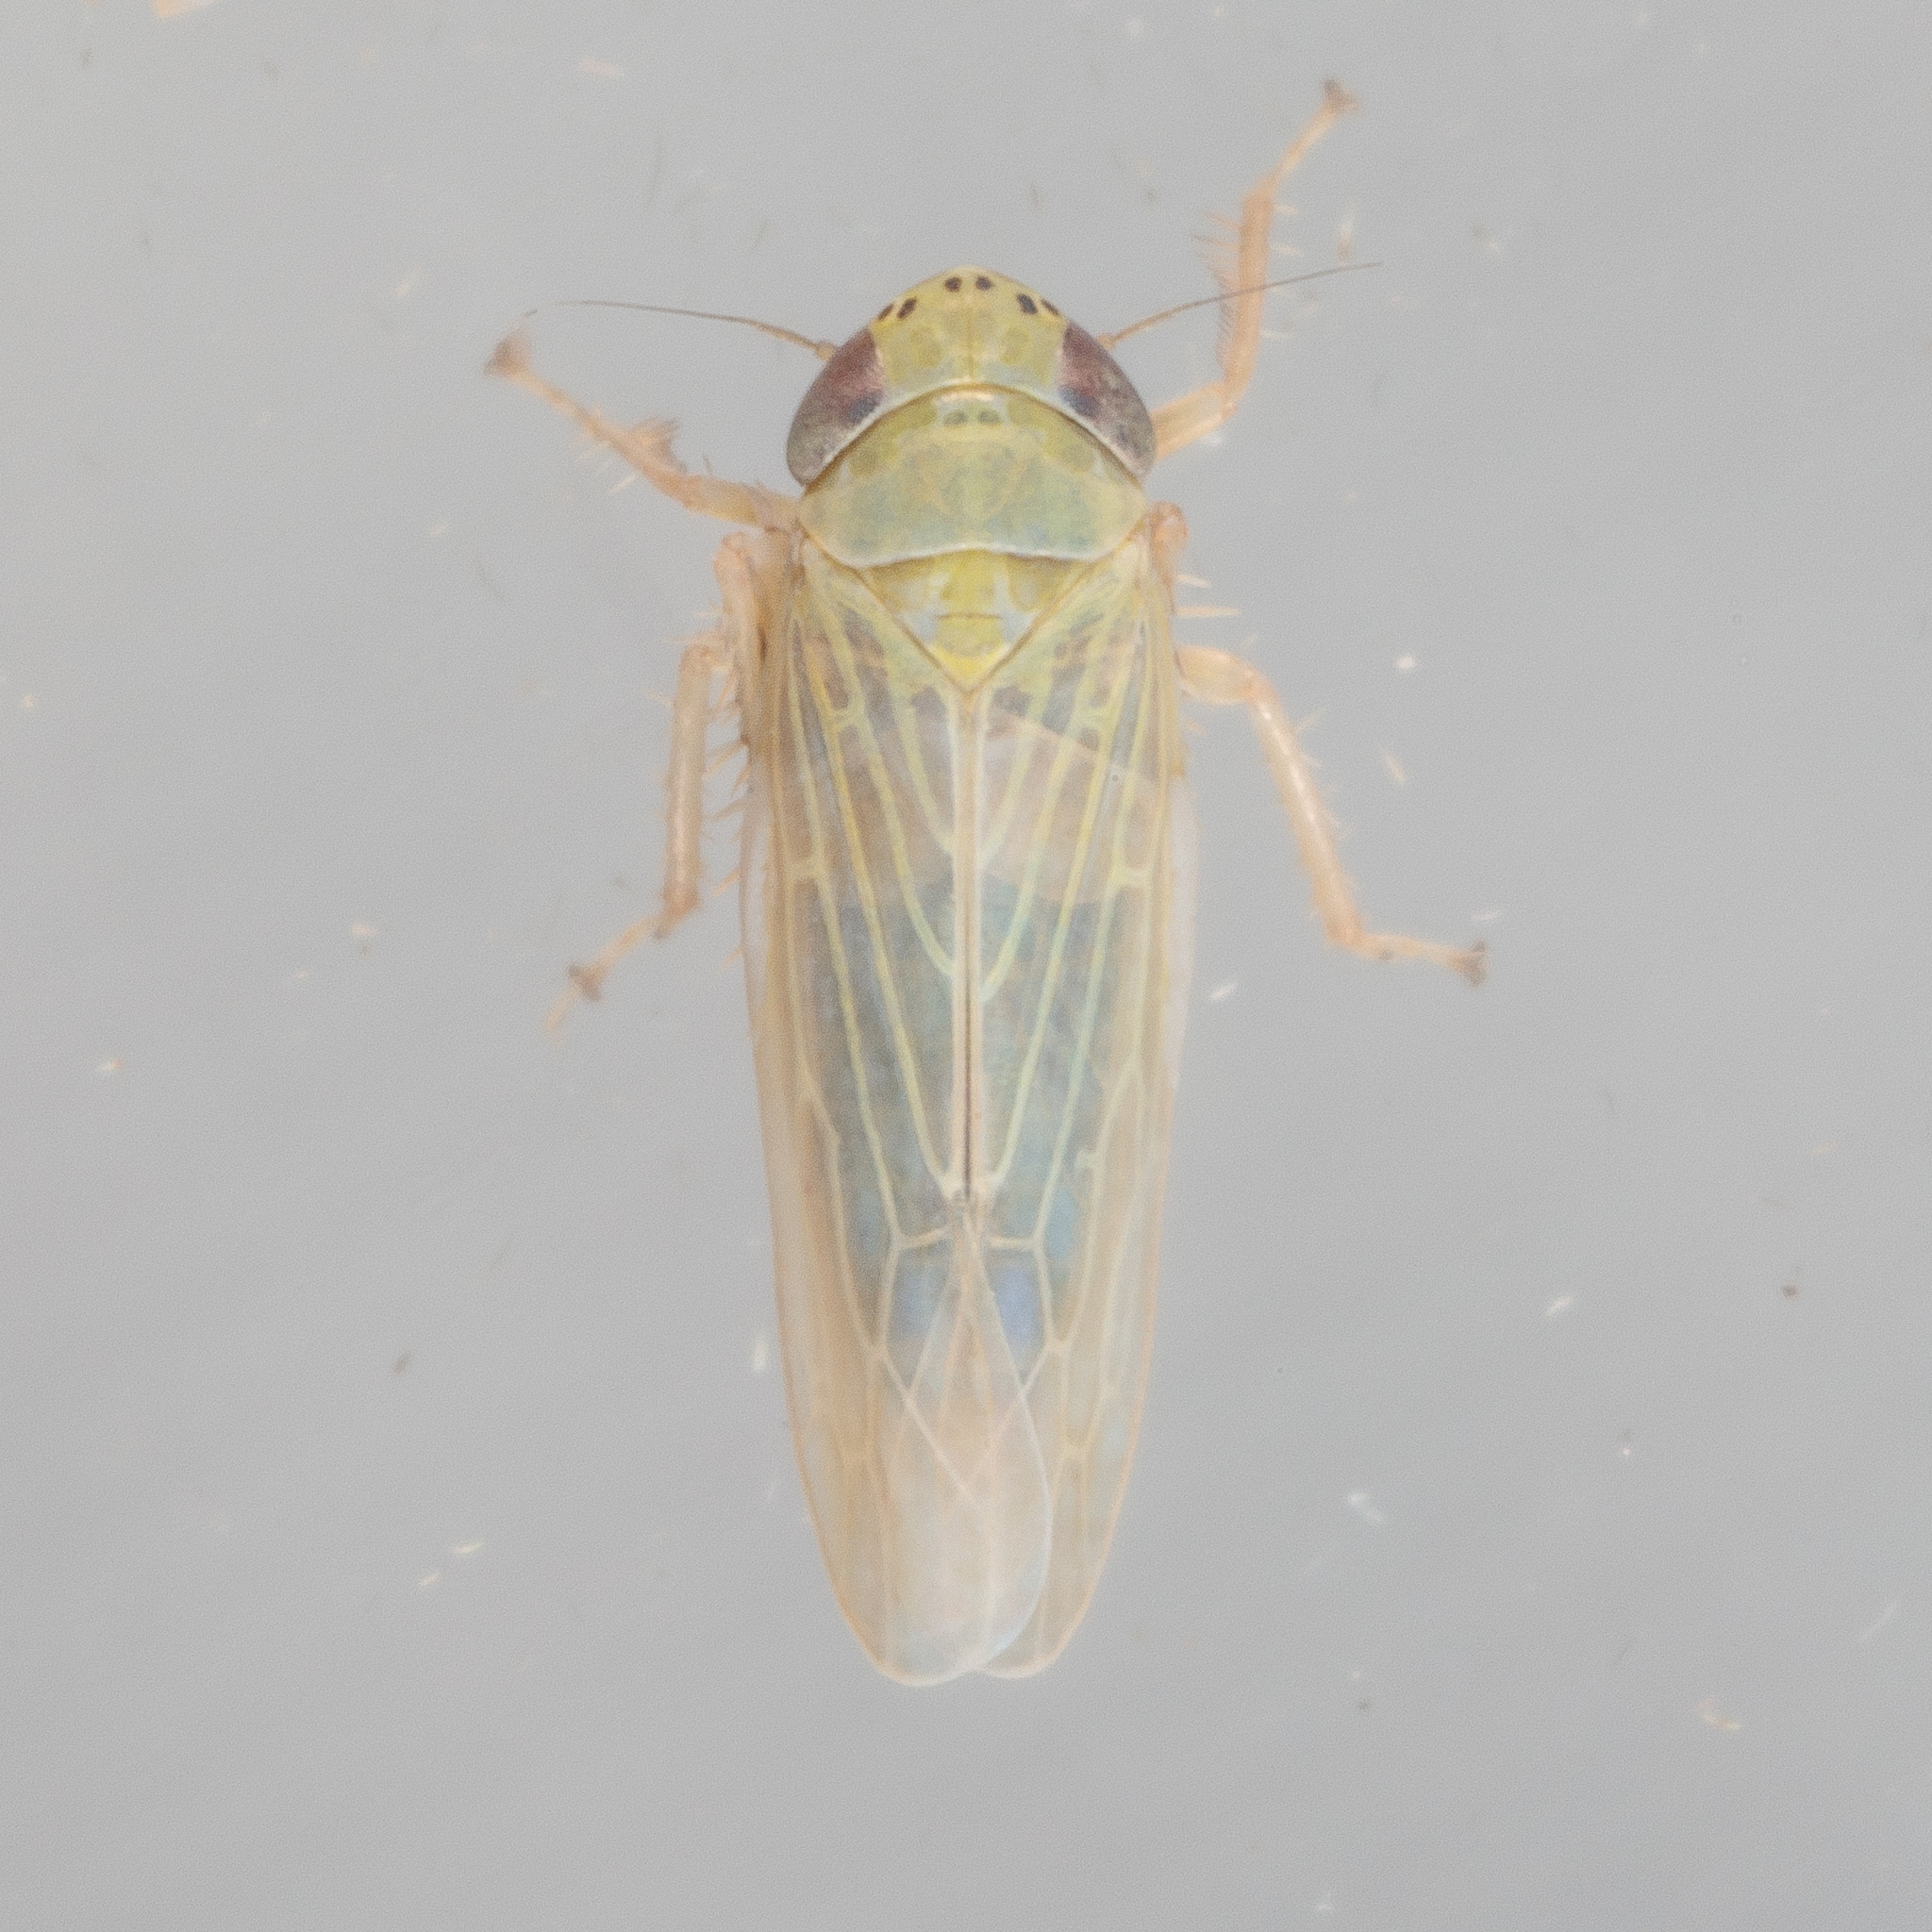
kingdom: Animalia
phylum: Arthropoda
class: Insecta
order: Hemiptera
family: Cicadellidae
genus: Graminella
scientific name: Graminella nigrifrons
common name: Blackfaced leafhopper
